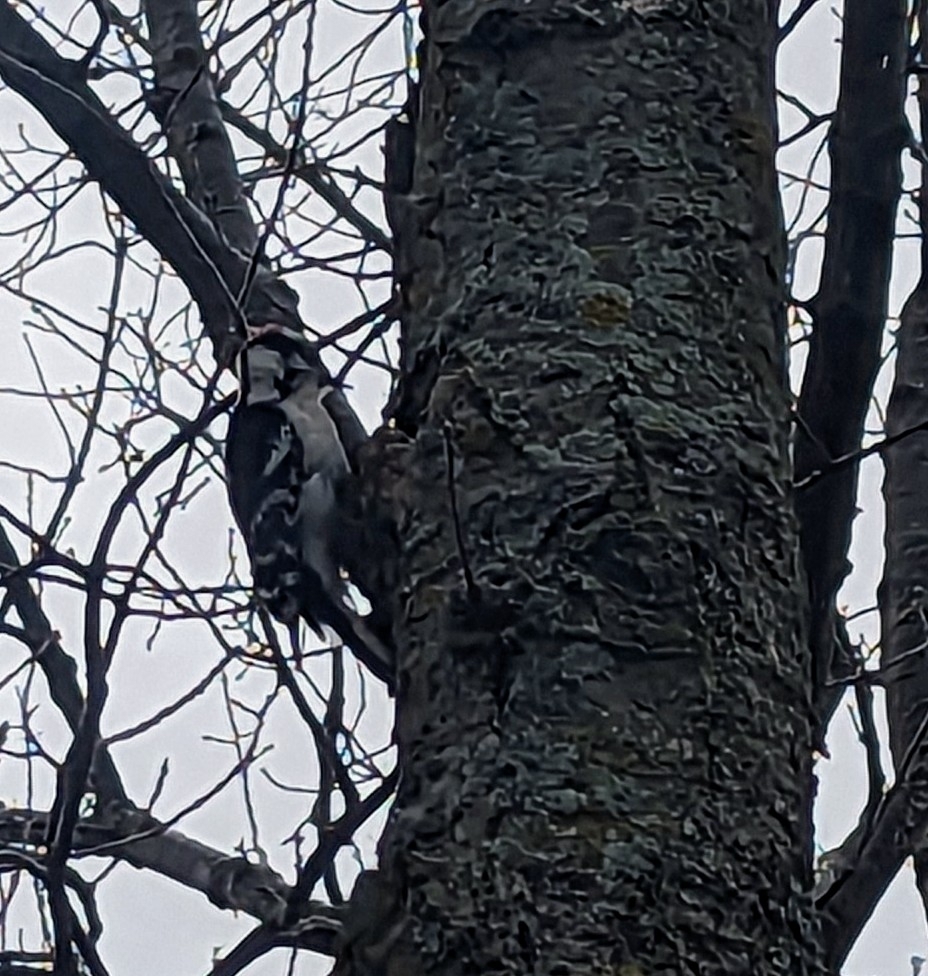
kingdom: Animalia
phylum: Chordata
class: Aves
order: Piciformes
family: Picidae
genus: Dryobates
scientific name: Dryobates pubescens
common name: Downy woodpecker
